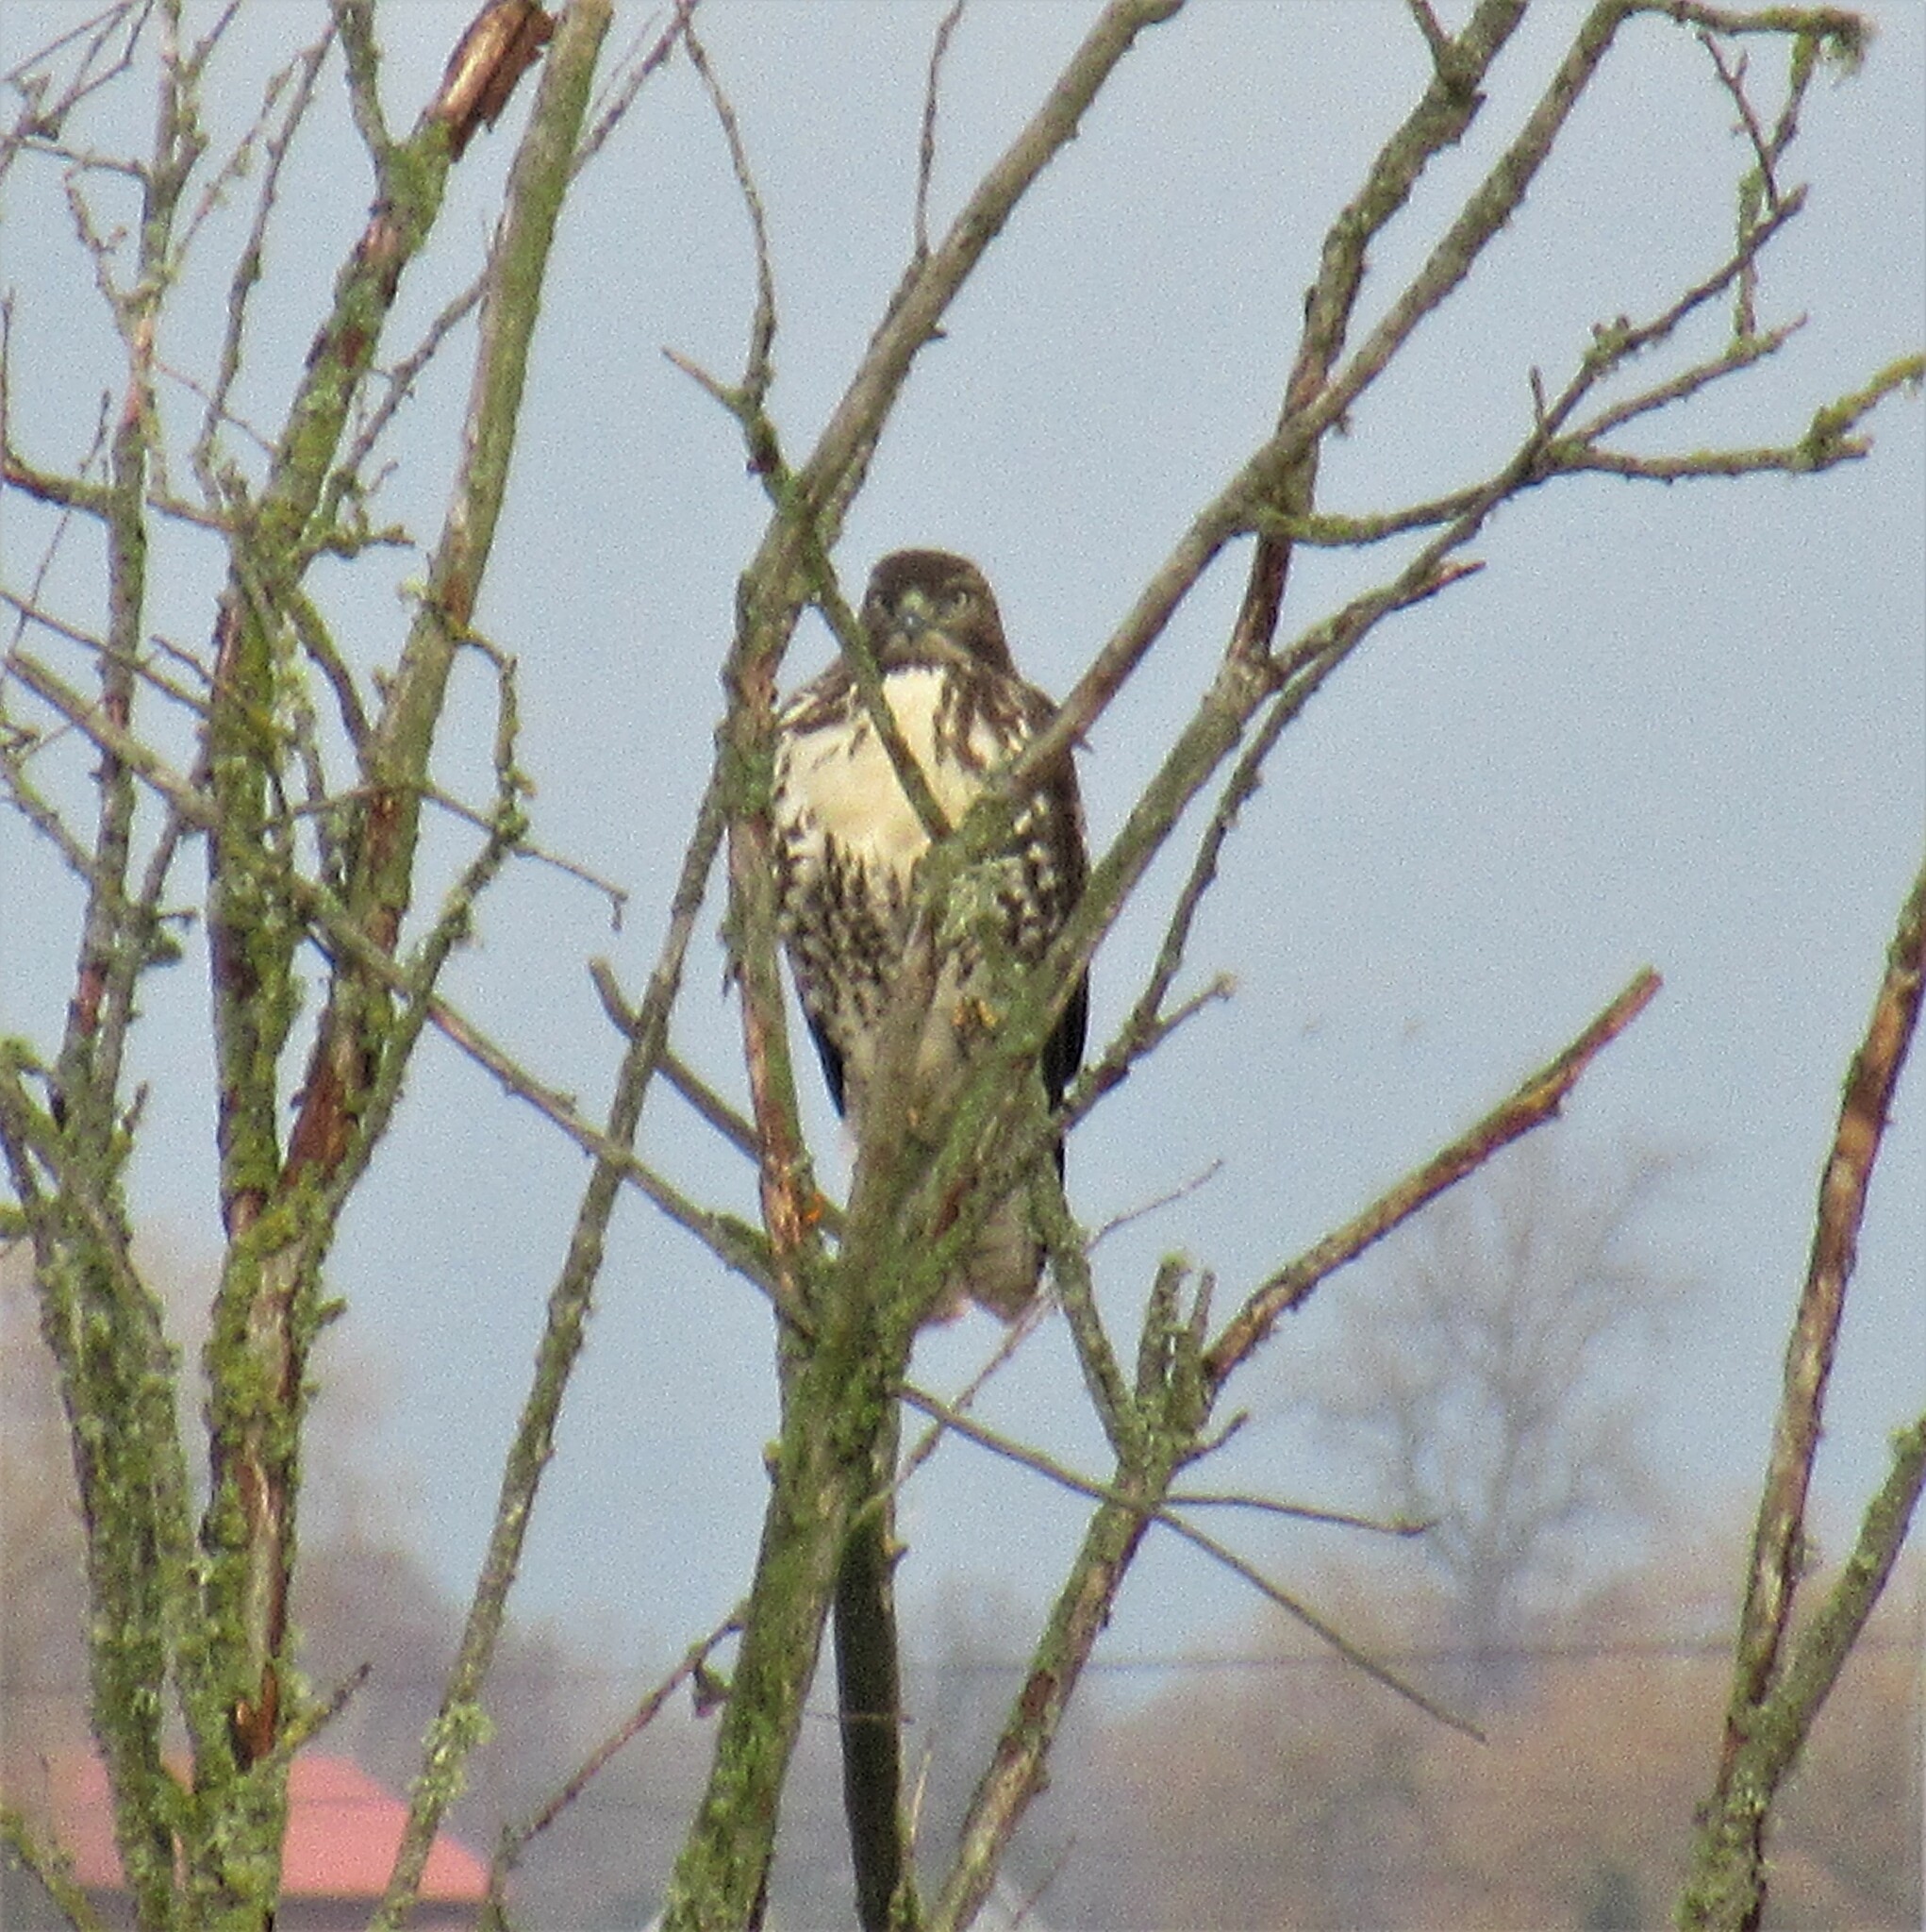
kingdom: Animalia
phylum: Chordata
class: Aves
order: Accipitriformes
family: Accipitridae
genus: Buteo
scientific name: Buteo jamaicensis
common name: Red-tailed hawk
